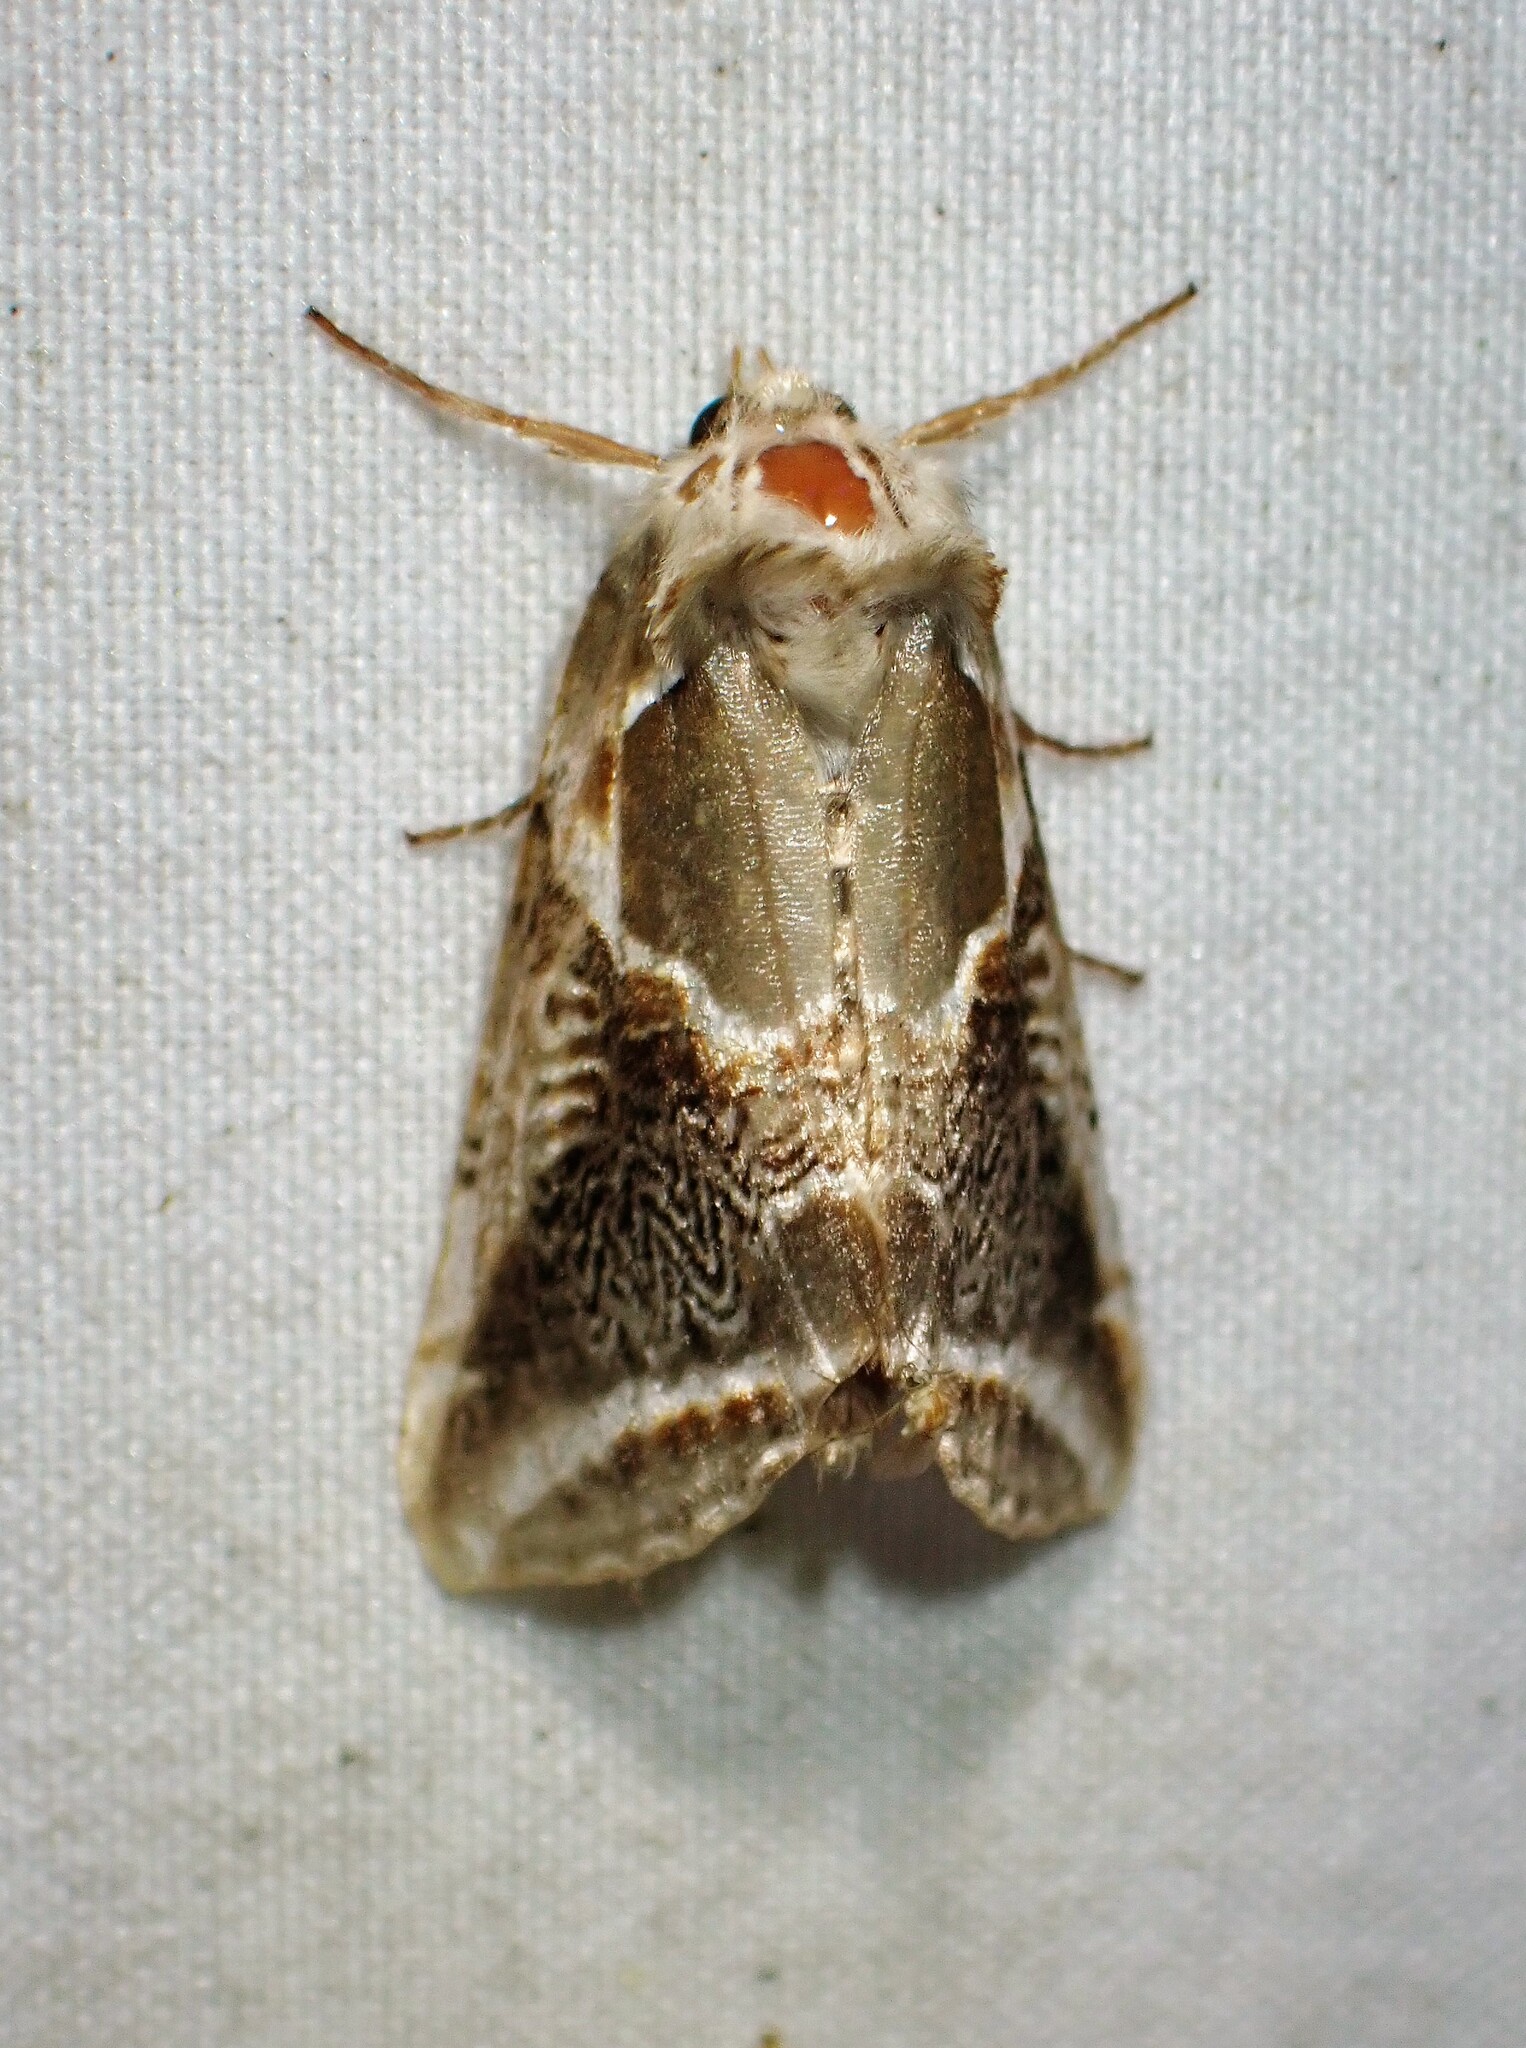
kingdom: Animalia
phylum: Arthropoda
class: Insecta
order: Lepidoptera
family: Drepanidae
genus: Habrosyne
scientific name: Habrosyne scripta
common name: Lettered habrosyne moth
